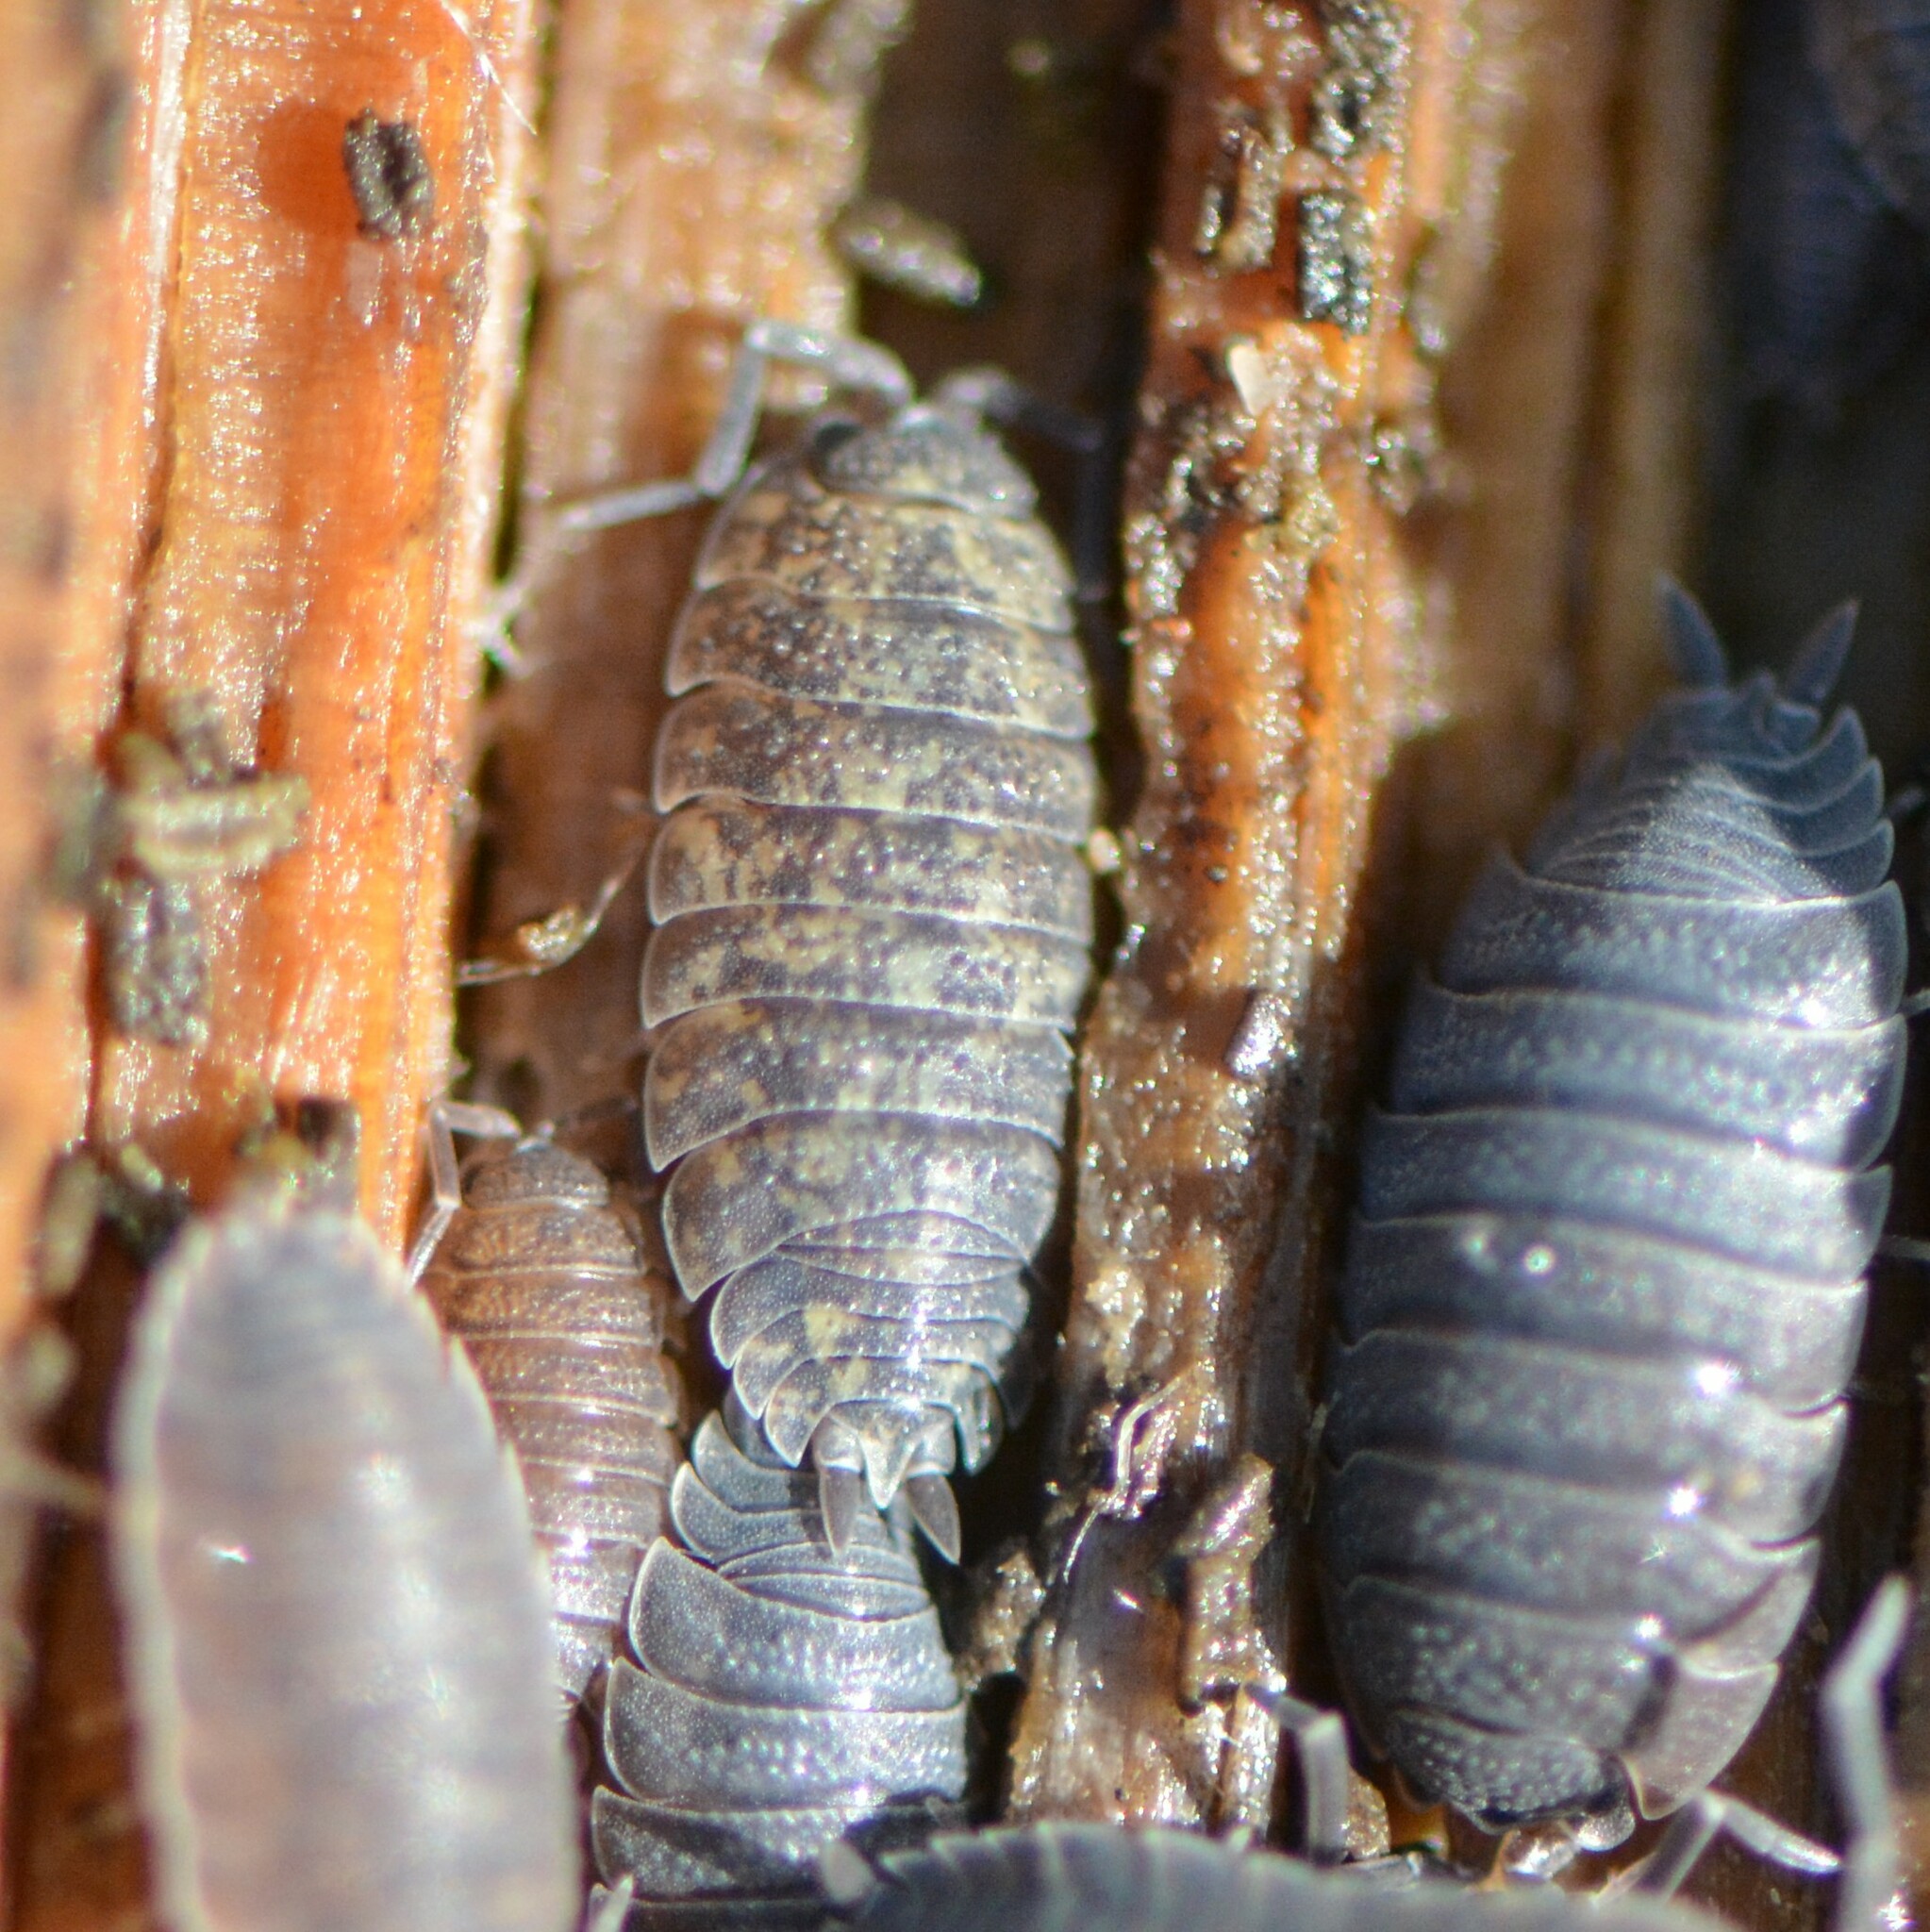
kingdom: Animalia
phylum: Arthropoda
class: Malacostraca
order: Isopoda
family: Porcellionidae
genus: Porcellio
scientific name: Porcellio scaber
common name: Common rough woodlouse
